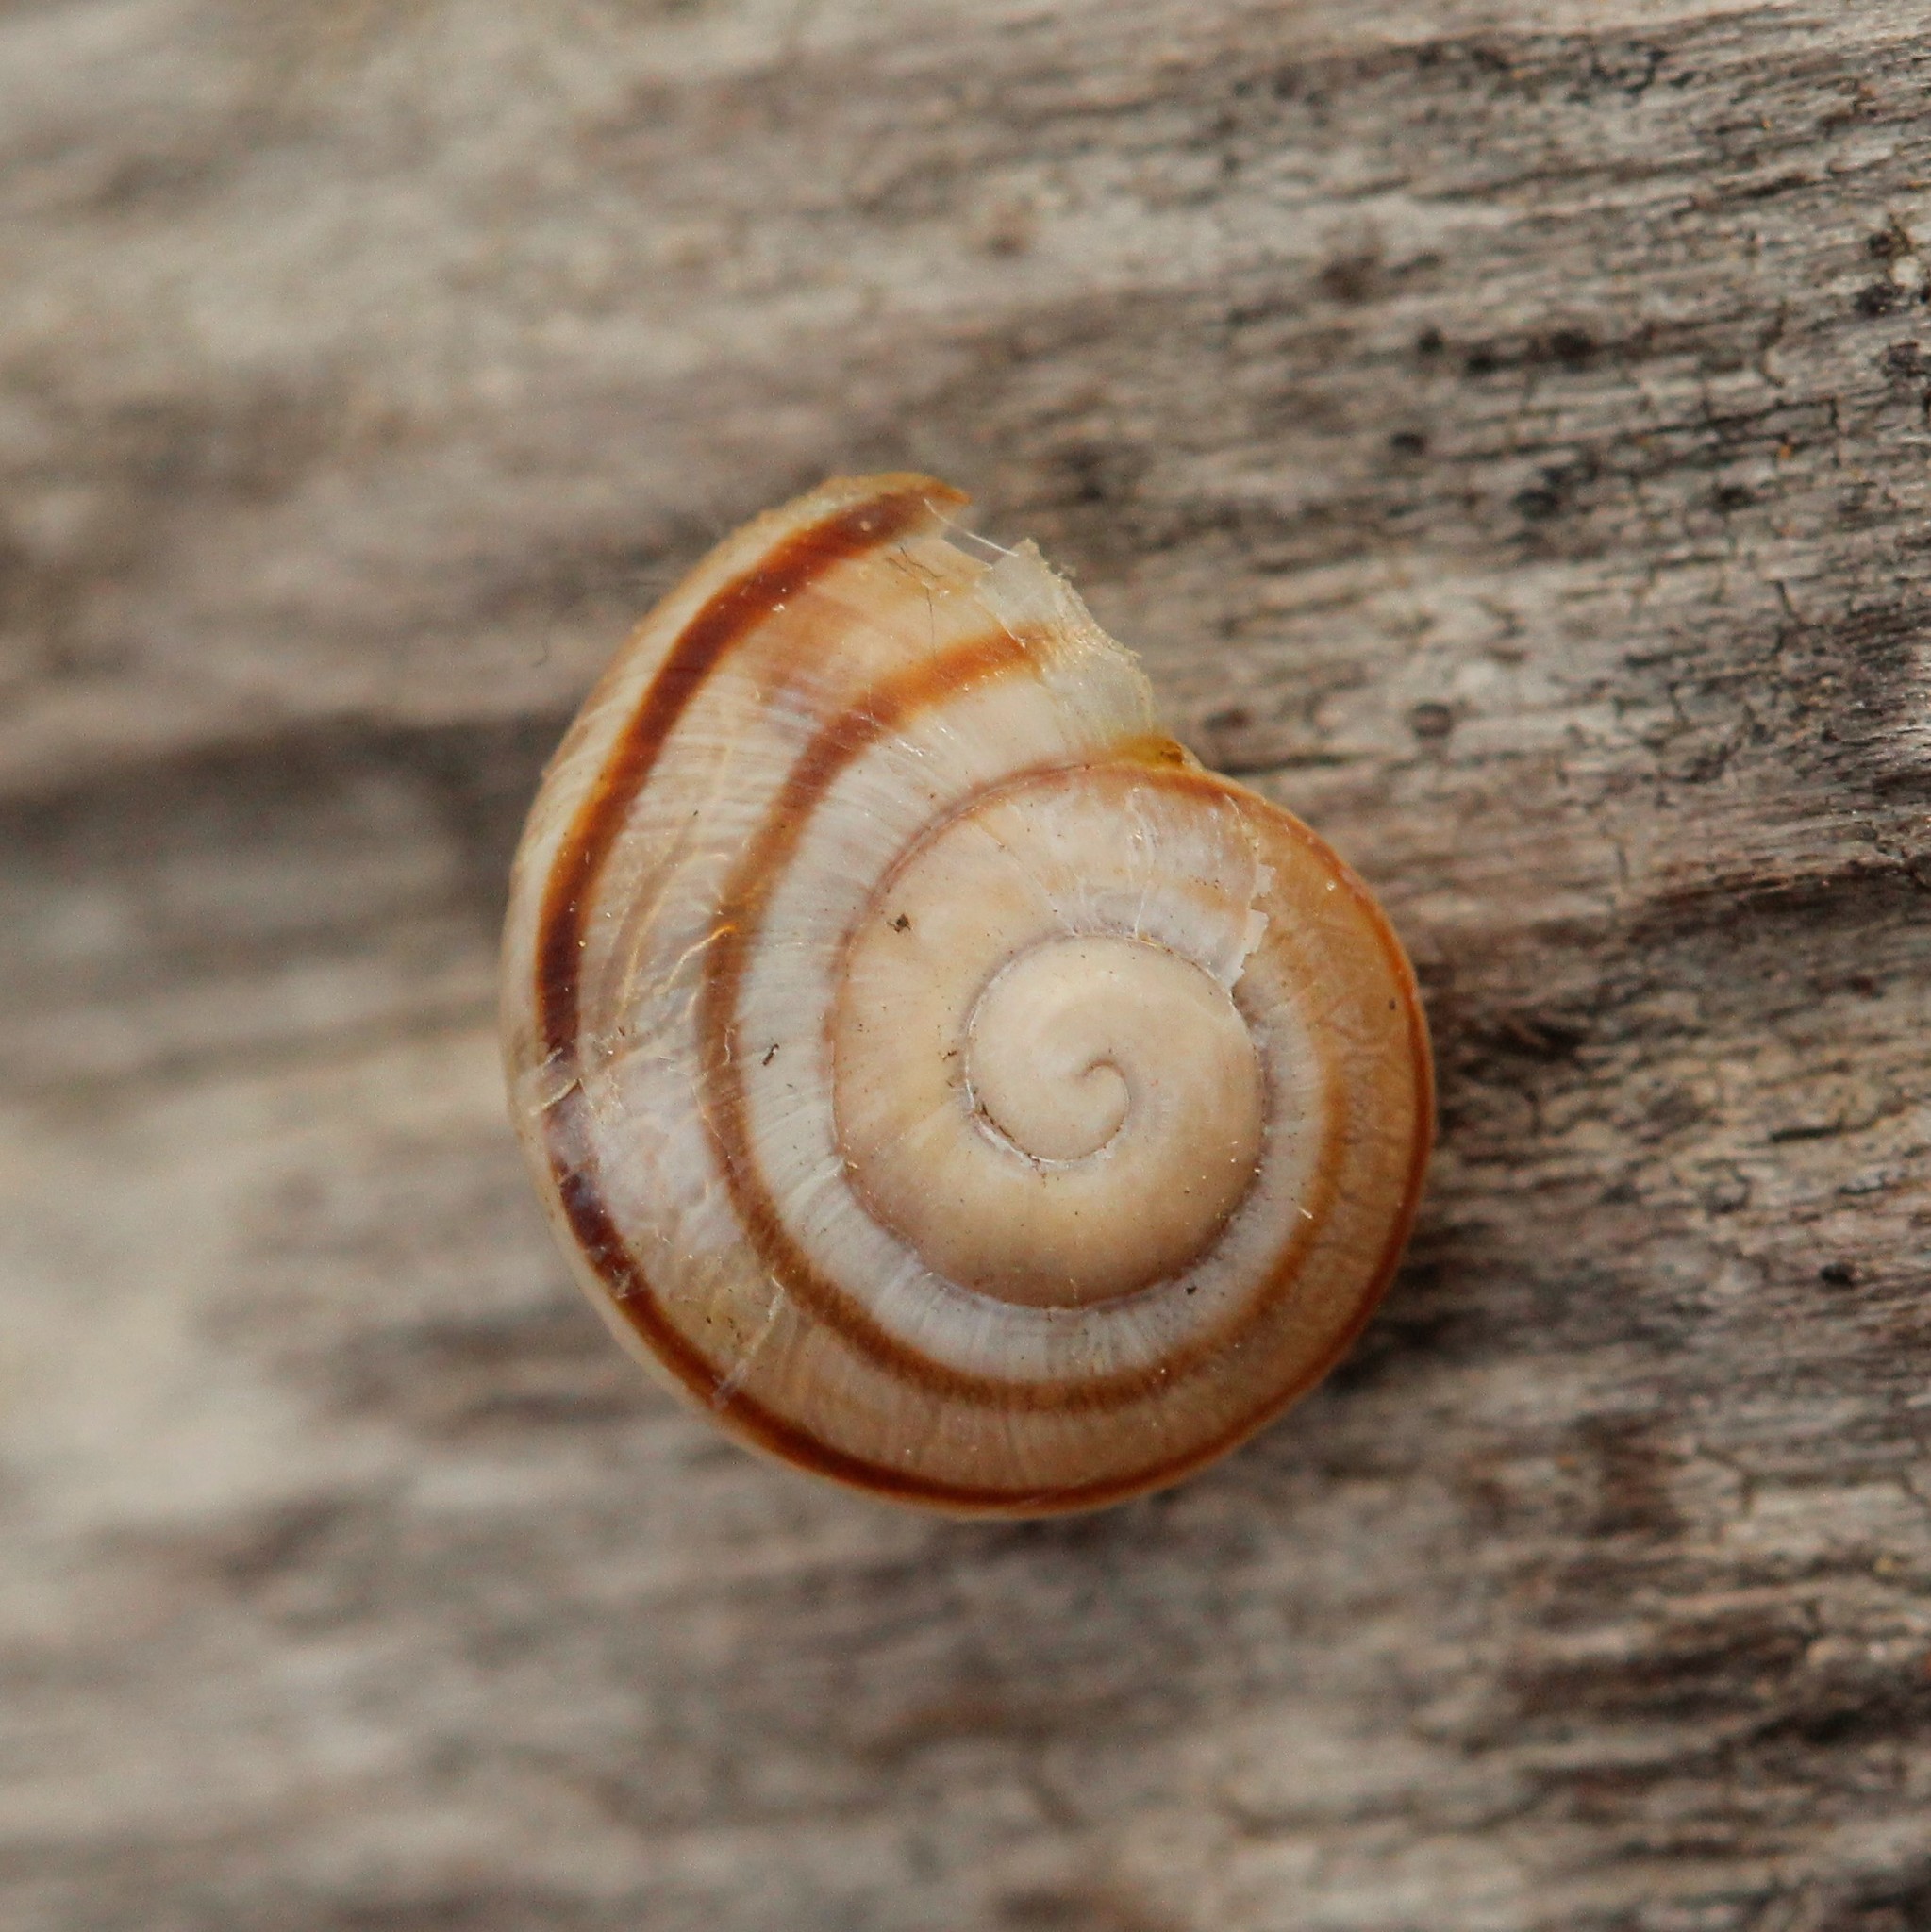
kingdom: Animalia
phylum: Mollusca
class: Gastropoda
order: Stylommatophora
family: Helicidae
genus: Caucasotachea
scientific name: Caucasotachea vindobonensis
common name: European helicid land snail
